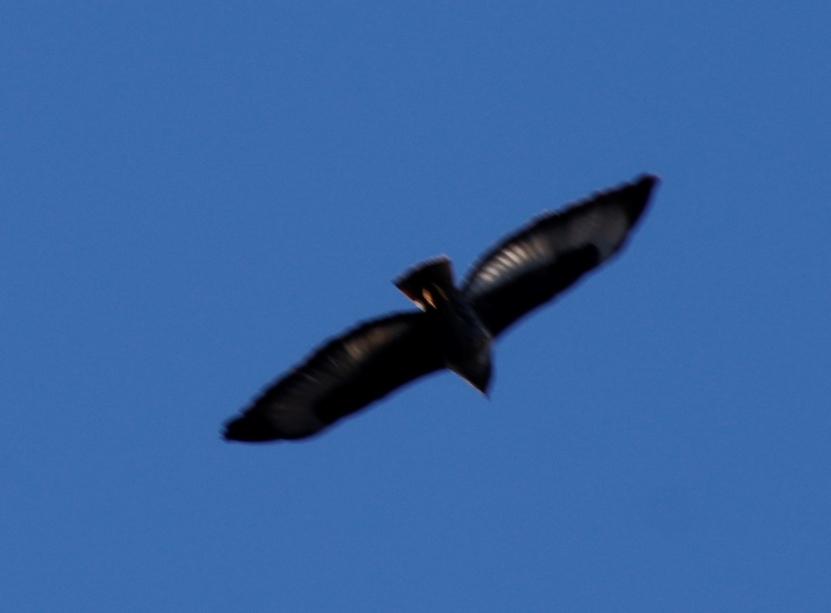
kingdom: Animalia
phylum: Chordata
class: Aves
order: Accipitriformes
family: Accipitridae
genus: Buteo
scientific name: Buteo rufofuscus
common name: Jackal buzzard
